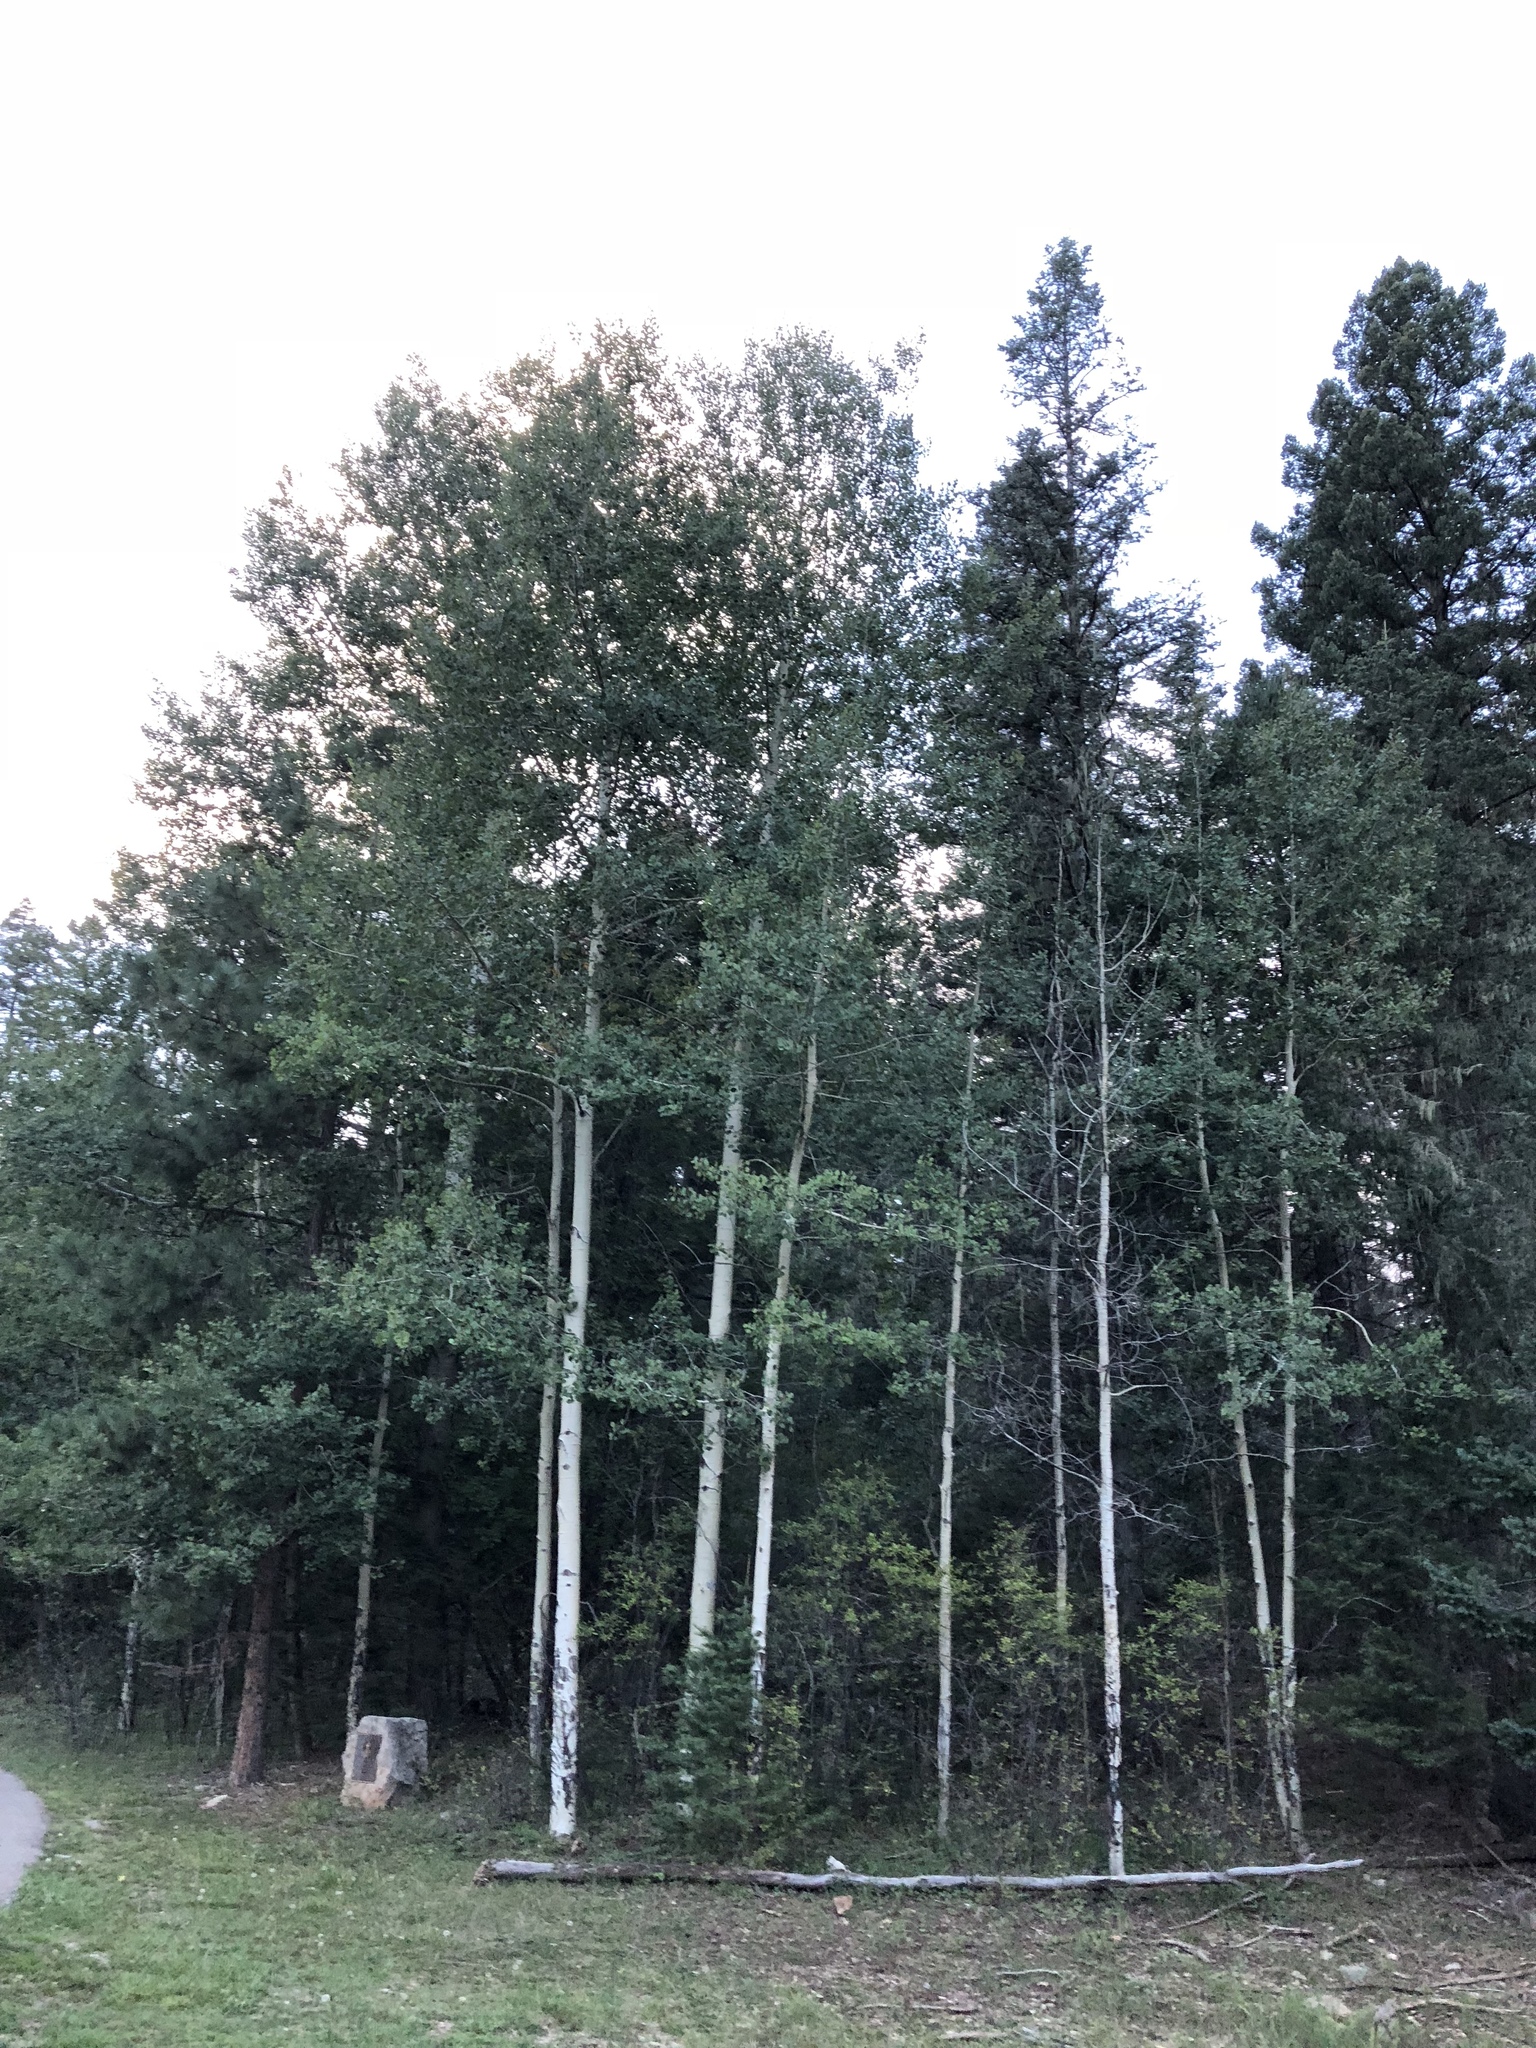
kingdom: Plantae
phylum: Tracheophyta
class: Magnoliopsida
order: Malpighiales
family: Salicaceae
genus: Populus
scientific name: Populus tremuloides
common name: Quaking aspen
